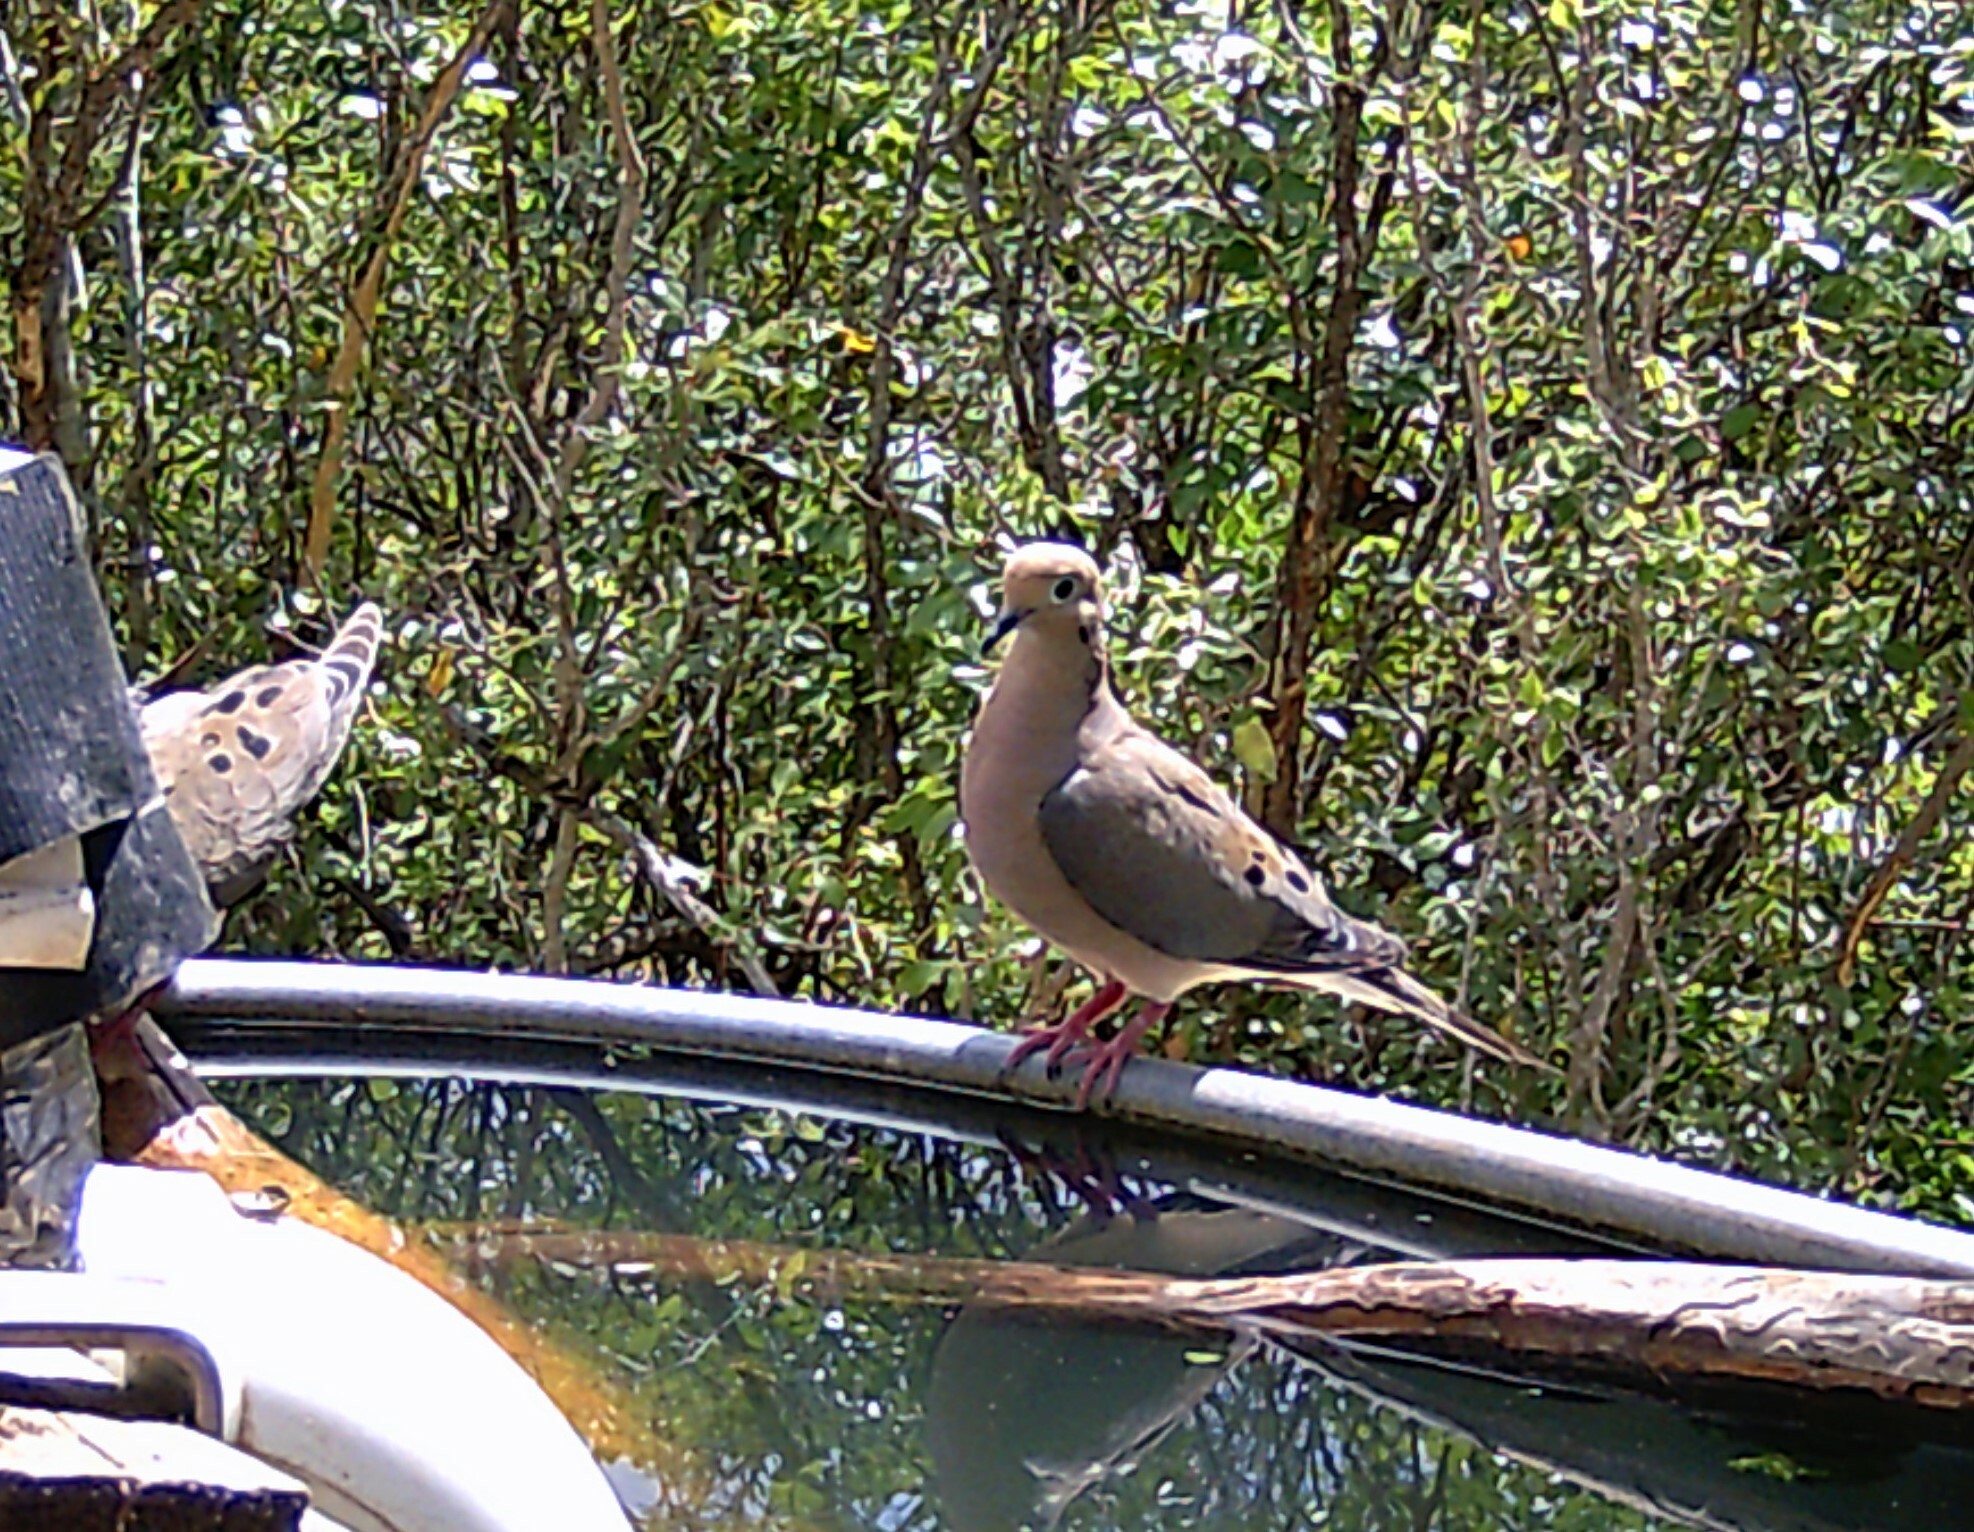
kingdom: Animalia
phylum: Chordata
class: Aves
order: Columbiformes
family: Columbidae
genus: Zenaida
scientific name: Zenaida macroura
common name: Mourning dove
